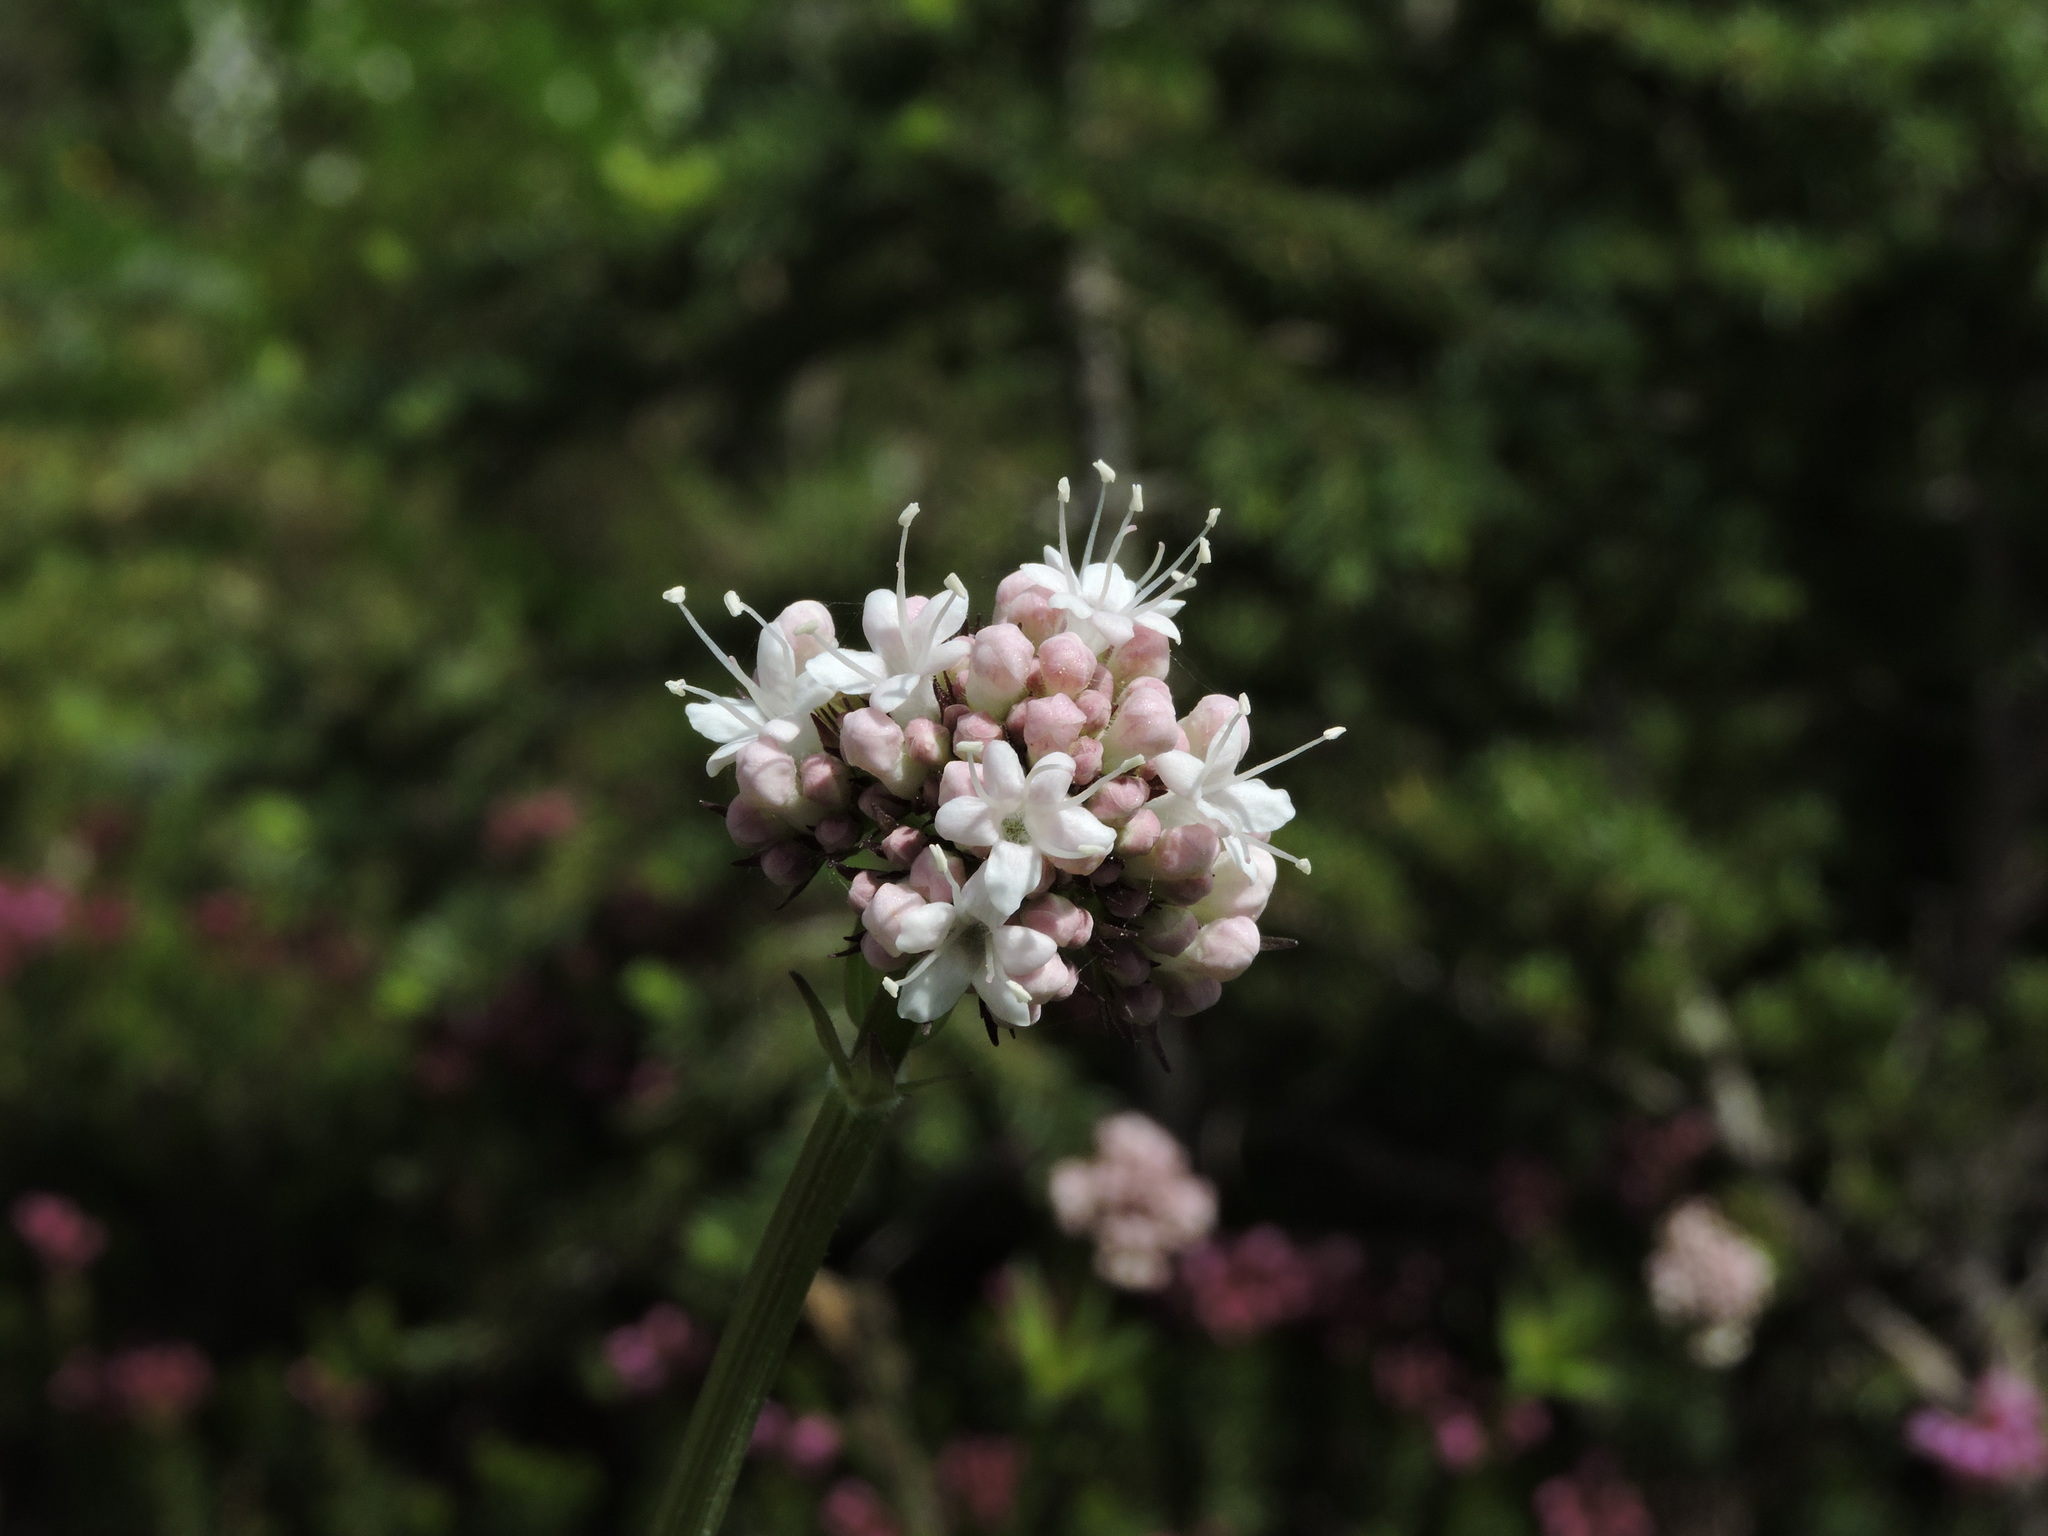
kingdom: Plantae
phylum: Tracheophyta
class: Magnoliopsida
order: Dipsacales
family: Caprifoliaceae
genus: Valeriana
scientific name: Valeriana sitchensis
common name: Pacific valerian
